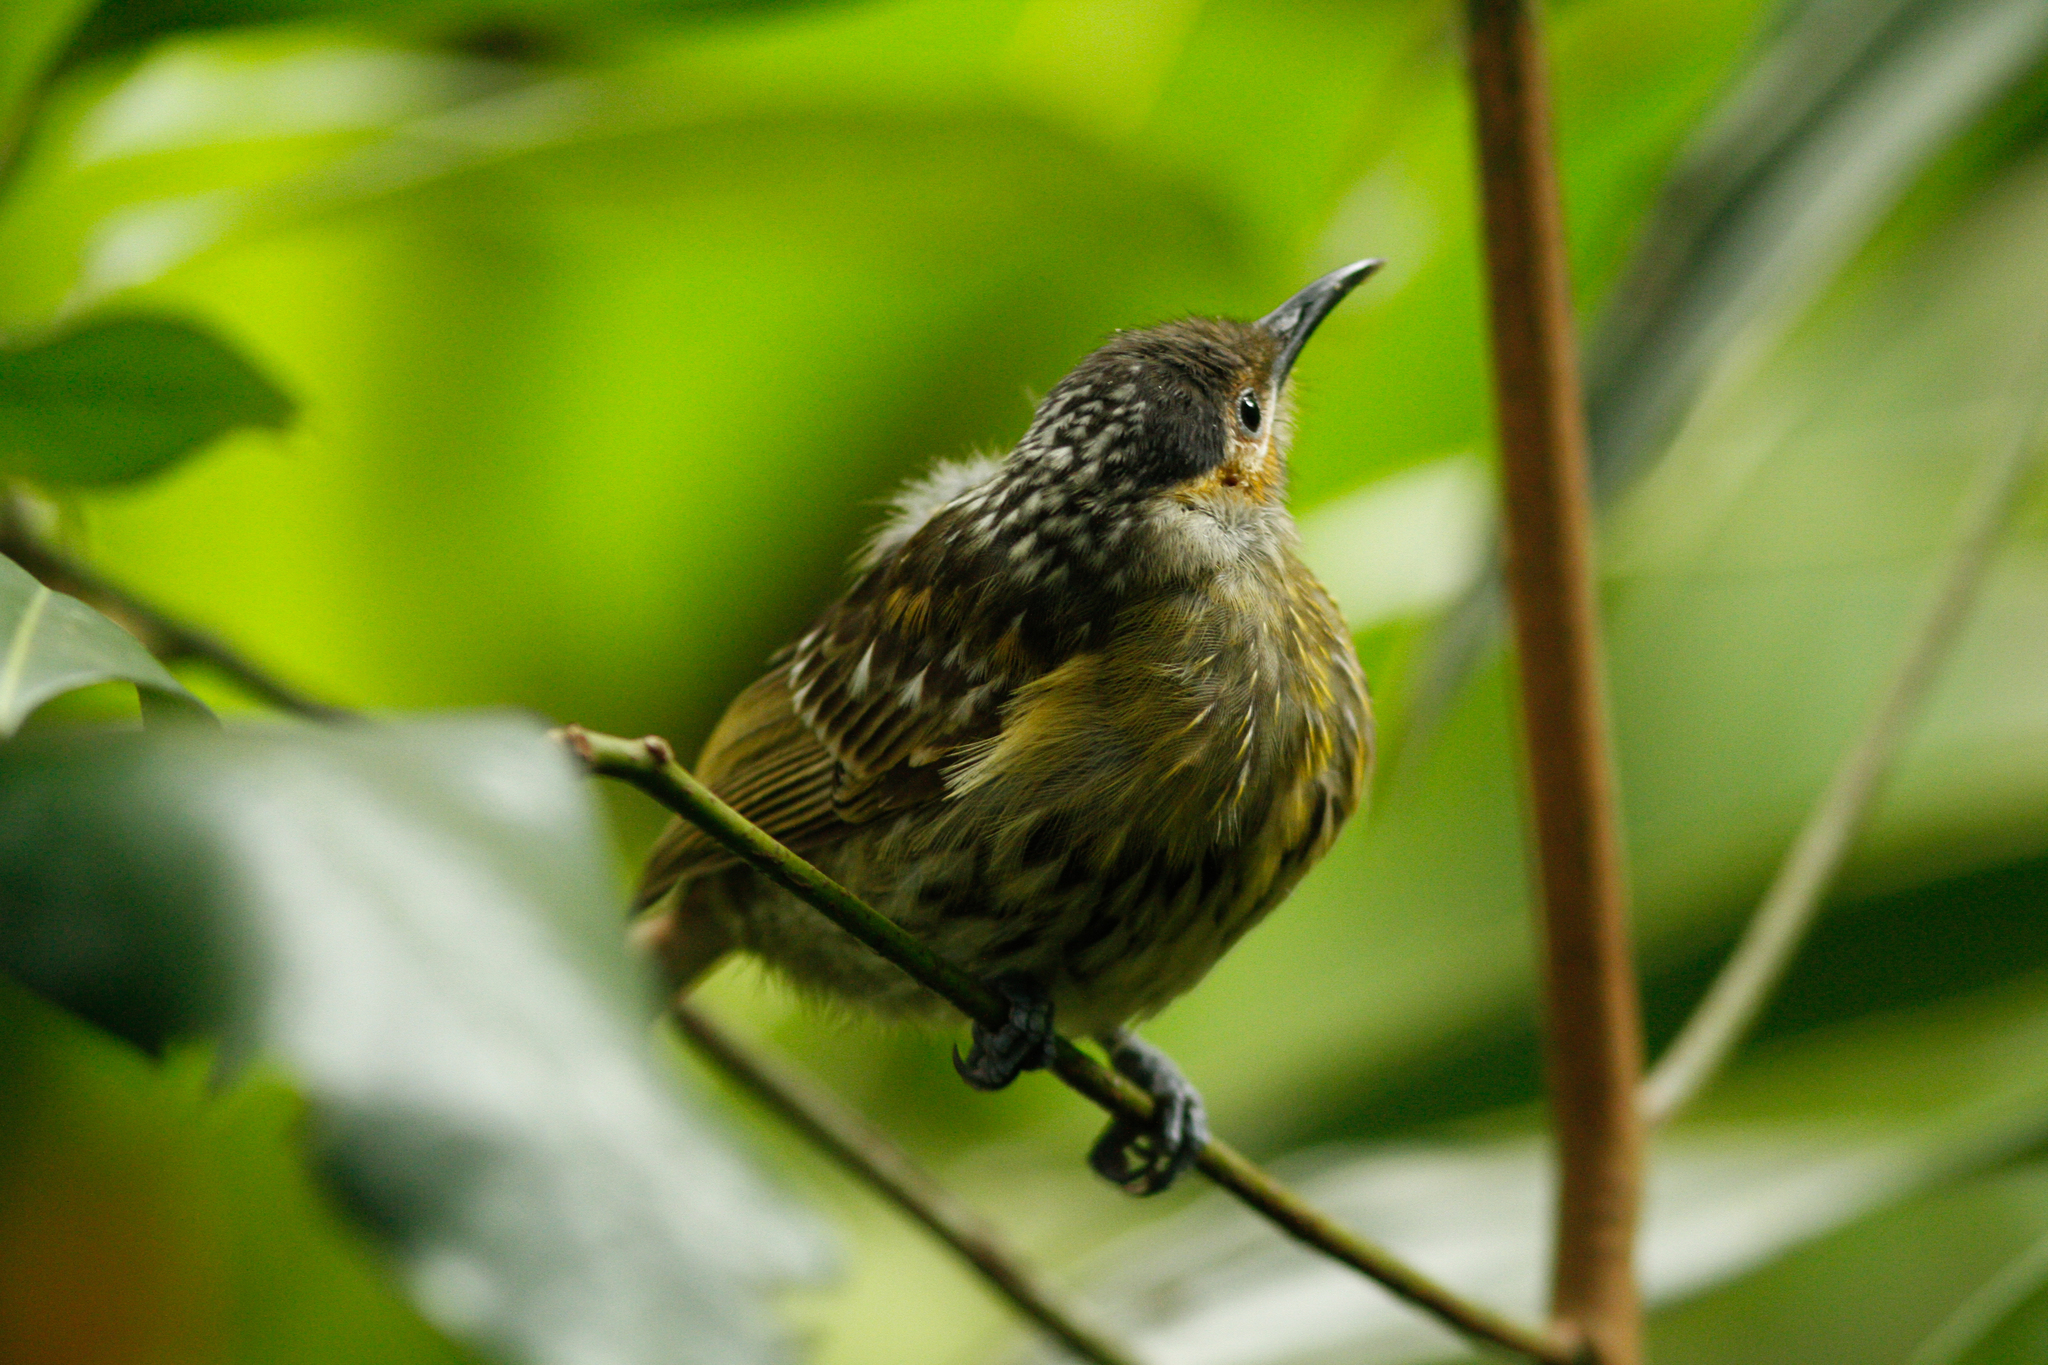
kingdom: Animalia
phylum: Chordata
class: Aves
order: Passeriformes
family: Meliphagidae
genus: Xanthotis
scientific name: Xanthotis macleayanus
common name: Macleay's honeyeater
